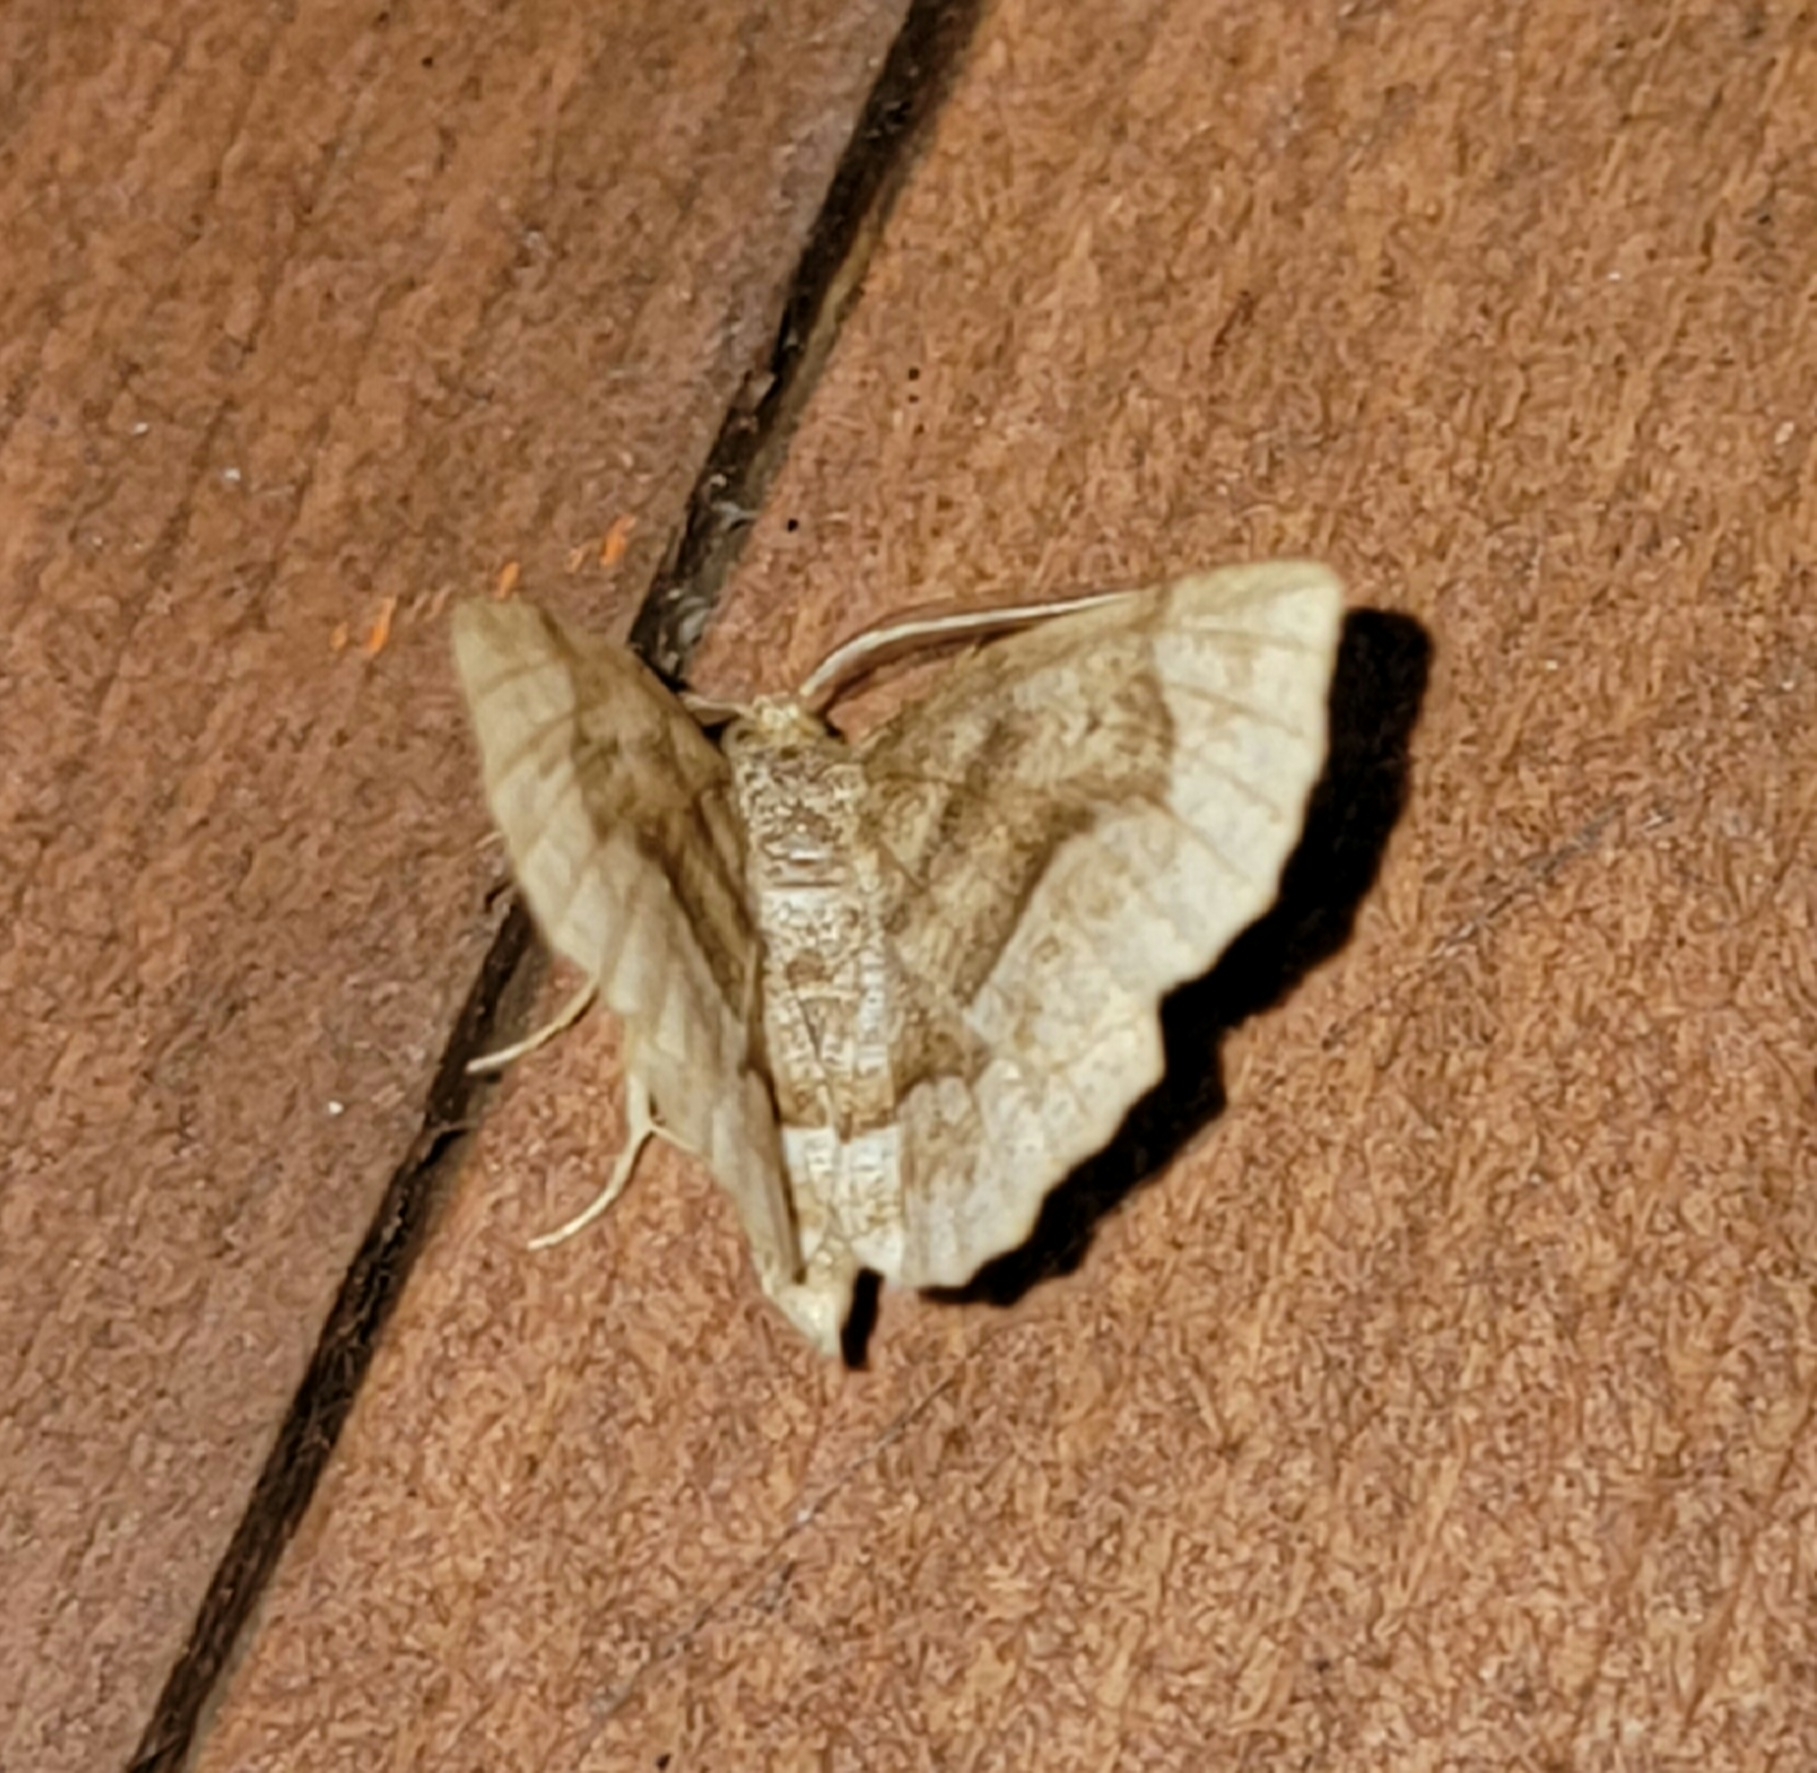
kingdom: Animalia
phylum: Arthropoda
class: Insecta
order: Lepidoptera
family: Geometridae
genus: Metarranthis
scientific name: Metarranthis hypochraria
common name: Common metarranthis
